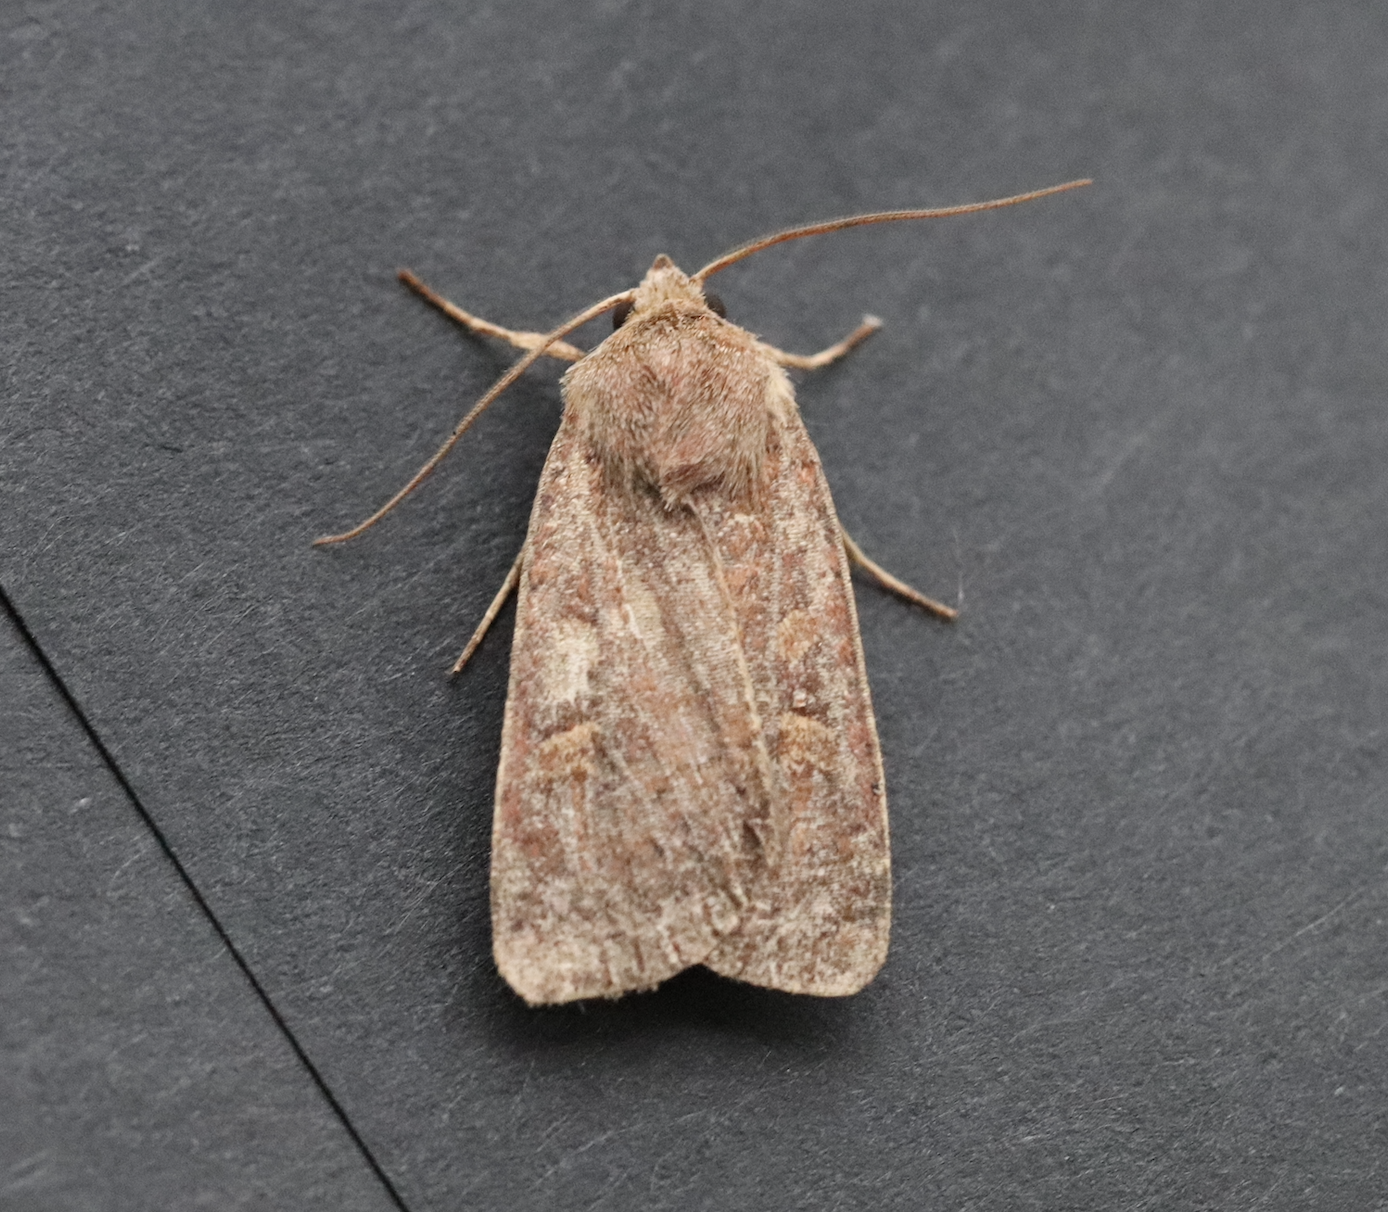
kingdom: Animalia
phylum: Arthropoda
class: Insecta
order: Lepidoptera
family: Noctuidae
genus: Xestia
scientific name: Xestia xanthographa
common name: Square-spot rustic
